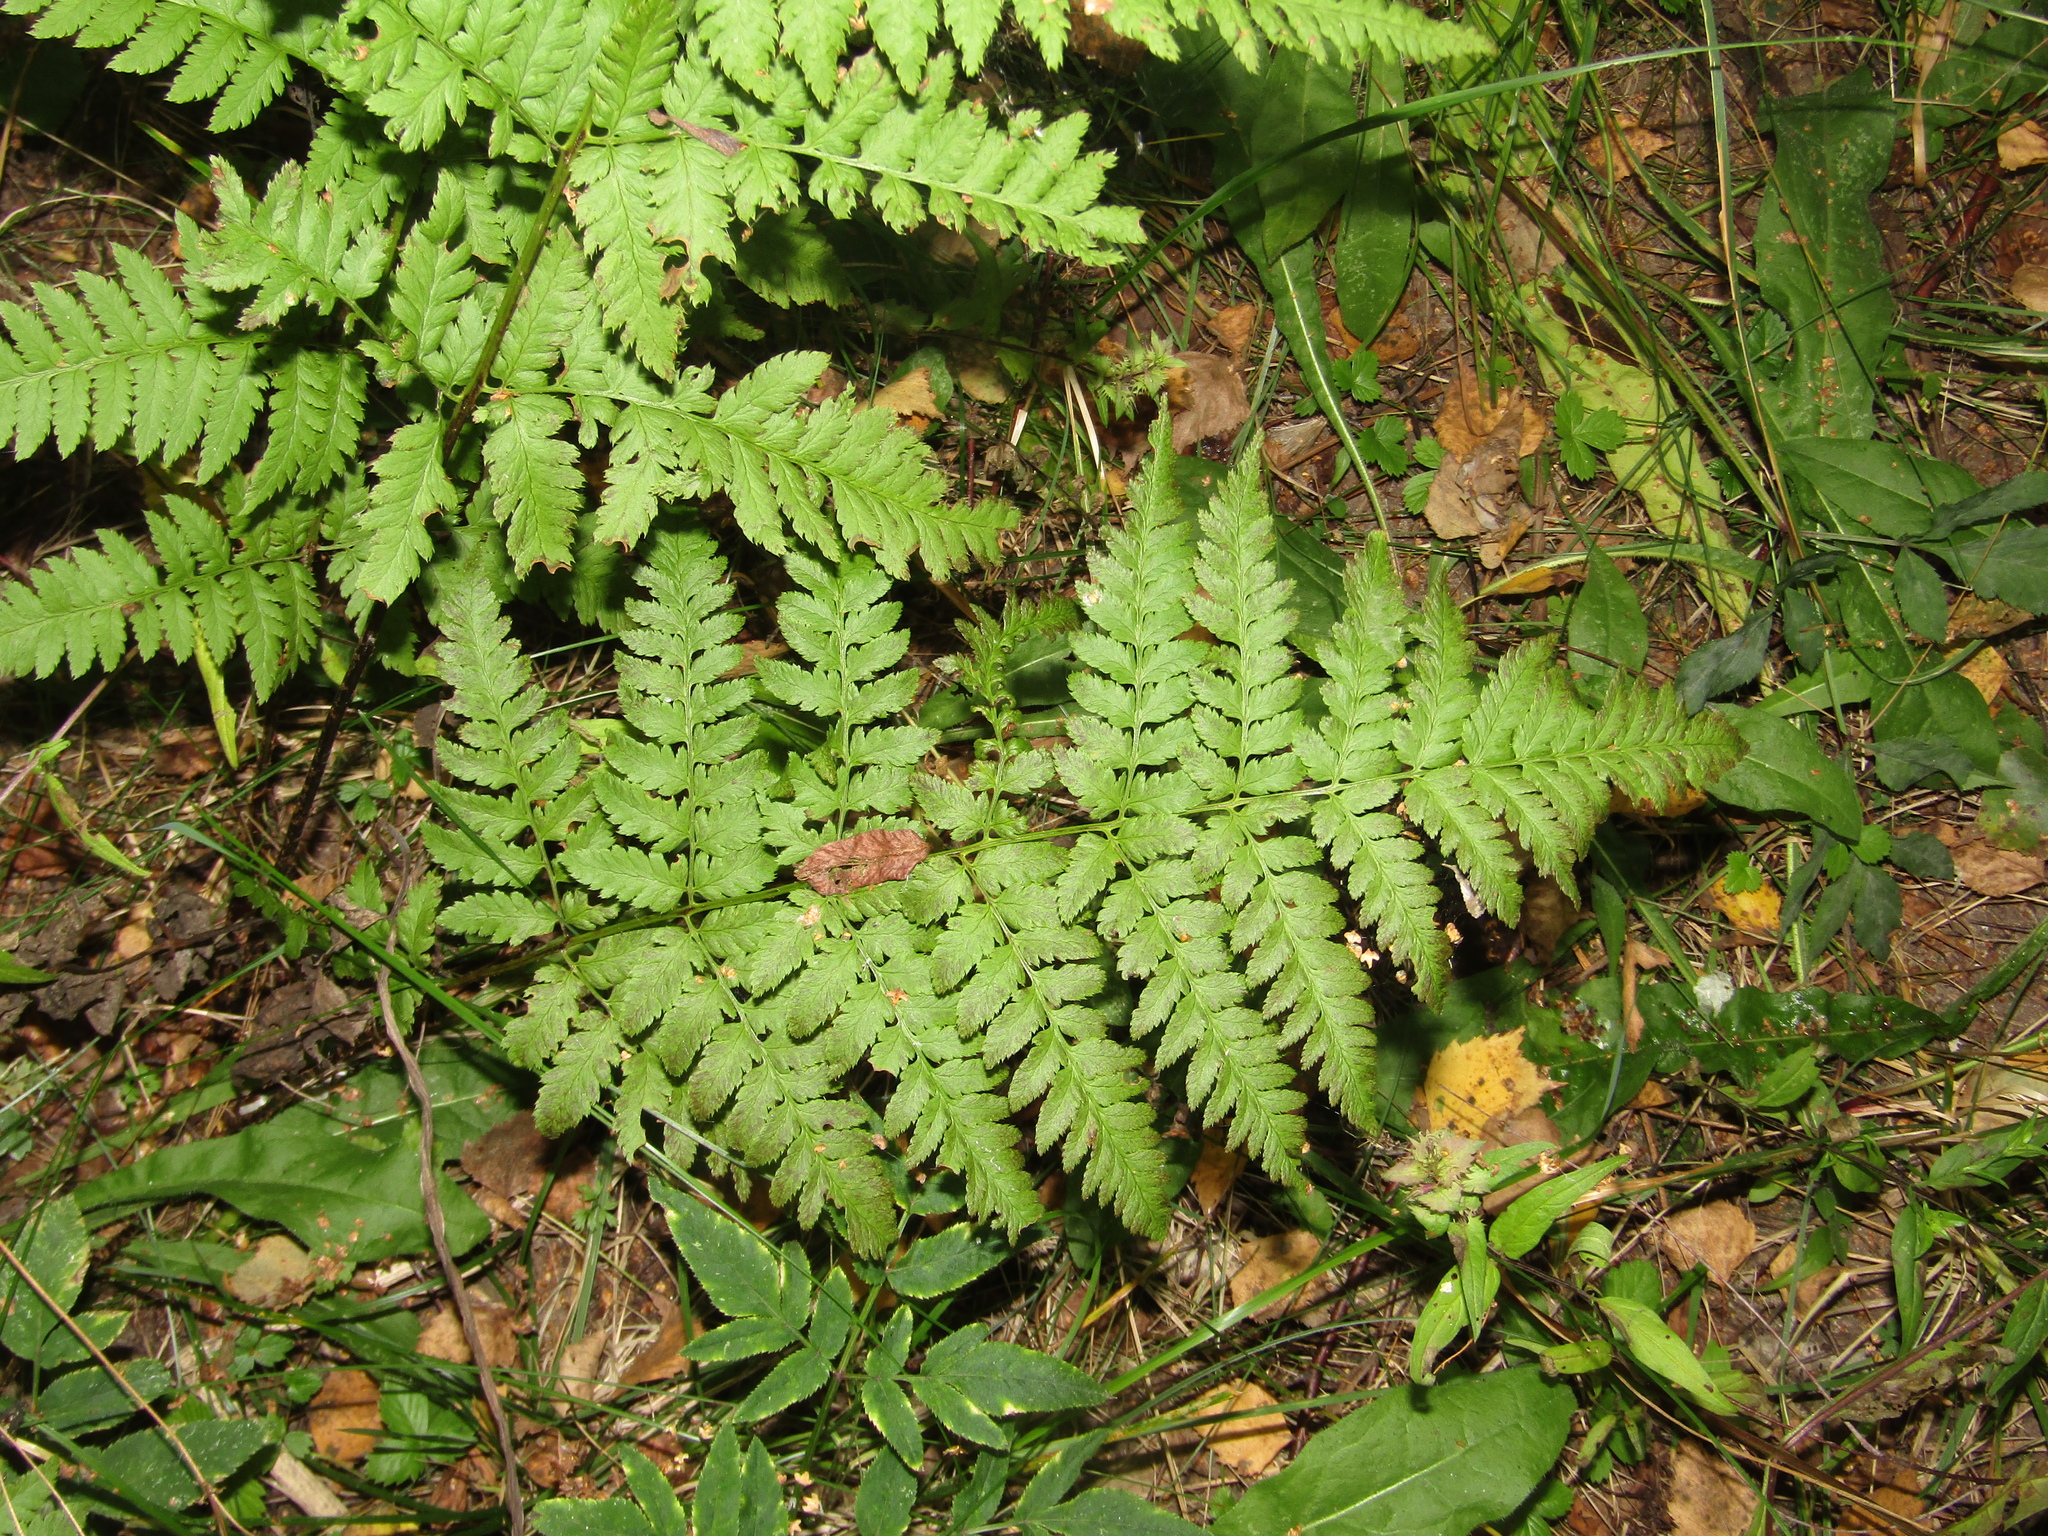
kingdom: Plantae
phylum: Tracheophyta
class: Polypodiopsida
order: Polypodiales
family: Dryopteridaceae
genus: Dryopteris
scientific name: Dryopteris carthusiana
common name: Narrow buckler-fern
